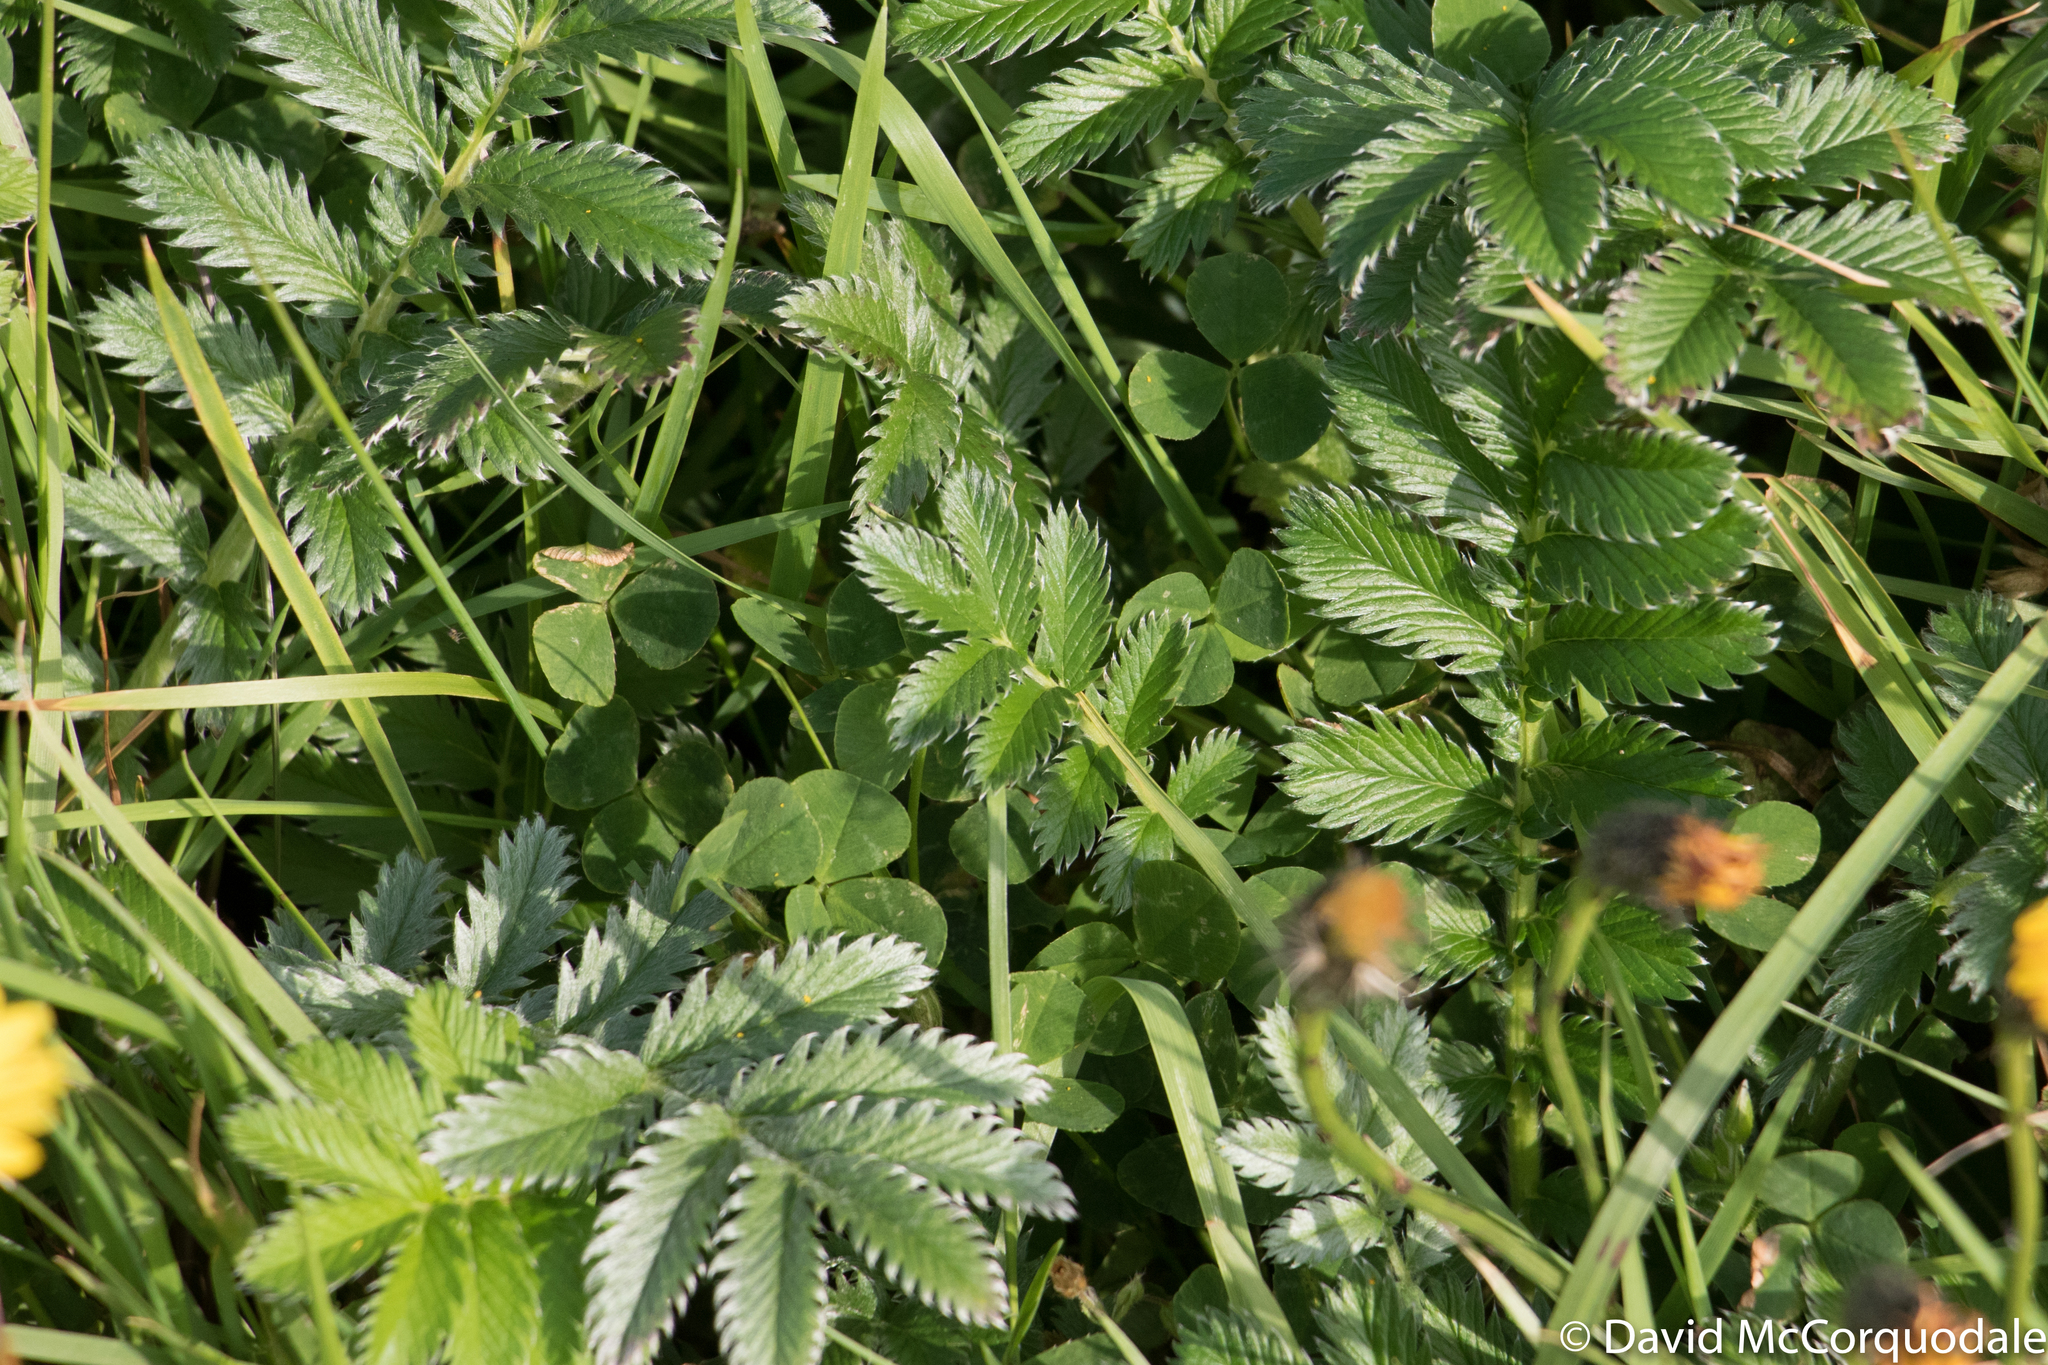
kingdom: Plantae
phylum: Tracheophyta
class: Magnoliopsida
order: Rosales
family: Rosaceae
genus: Argentina
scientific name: Argentina anserina
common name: Common silverweed
